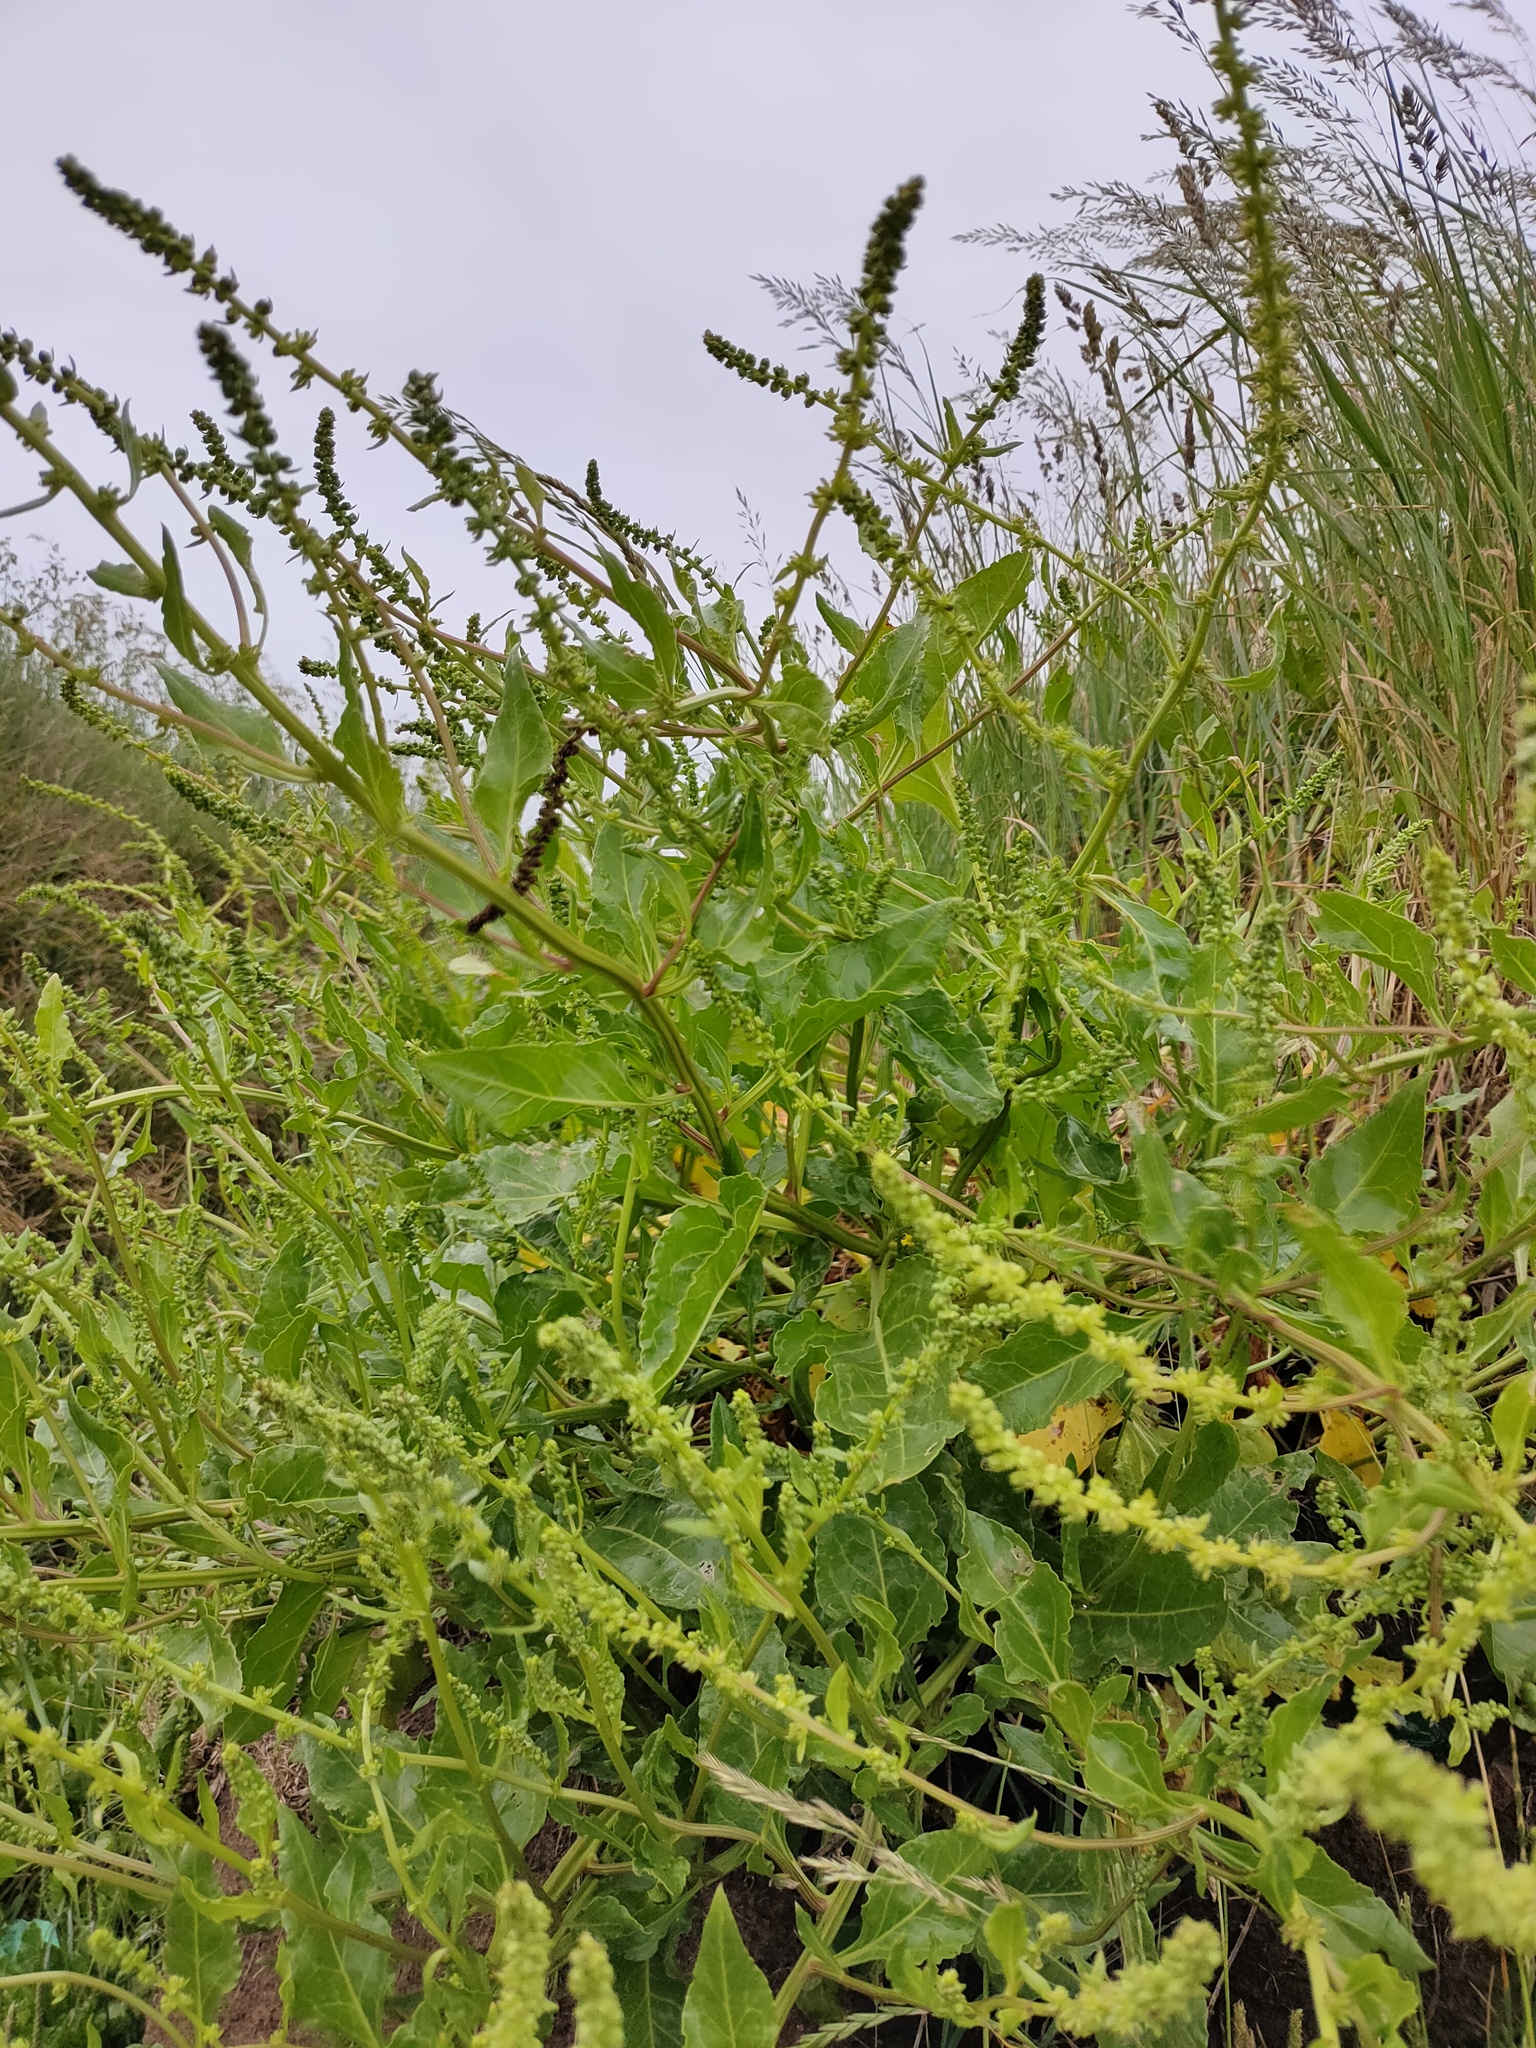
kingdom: Plantae
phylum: Tracheophyta
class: Magnoliopsida
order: Caryophyllales
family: Amaranthaceae
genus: Beta
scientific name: Beta vulgaris
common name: Beet
